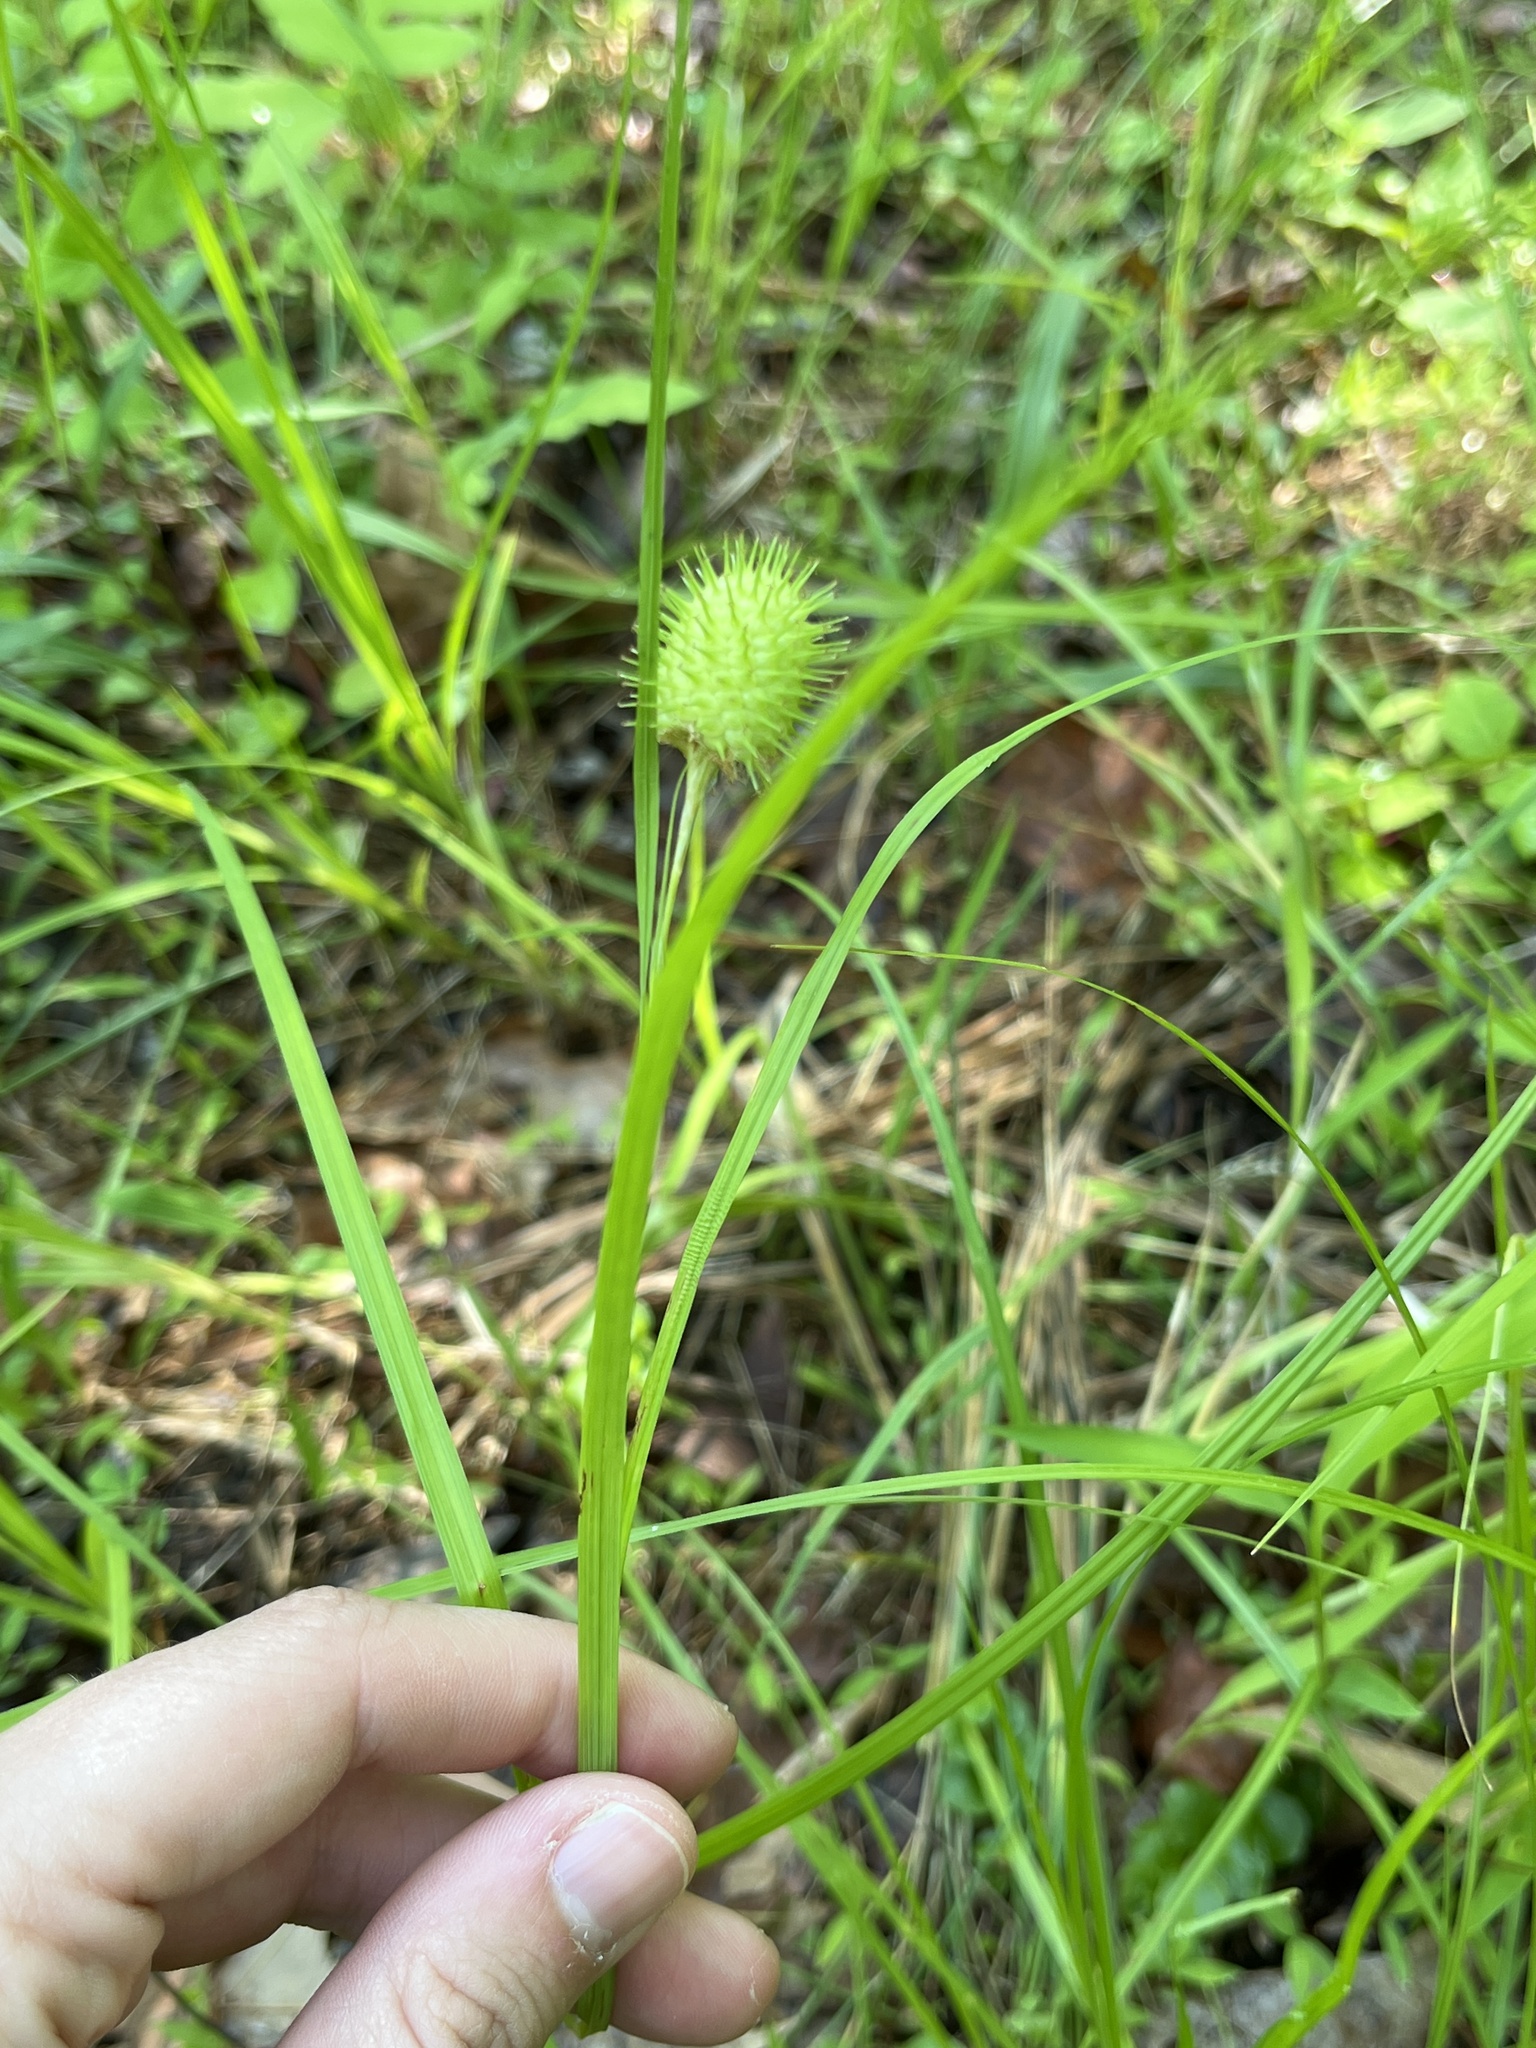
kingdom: Plantae
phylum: Tracheophyta
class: Liliopsida
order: Poales
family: Cyperaceae
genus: Carex
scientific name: Carex squarrosa
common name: Narrow-leaved cattail sedge
